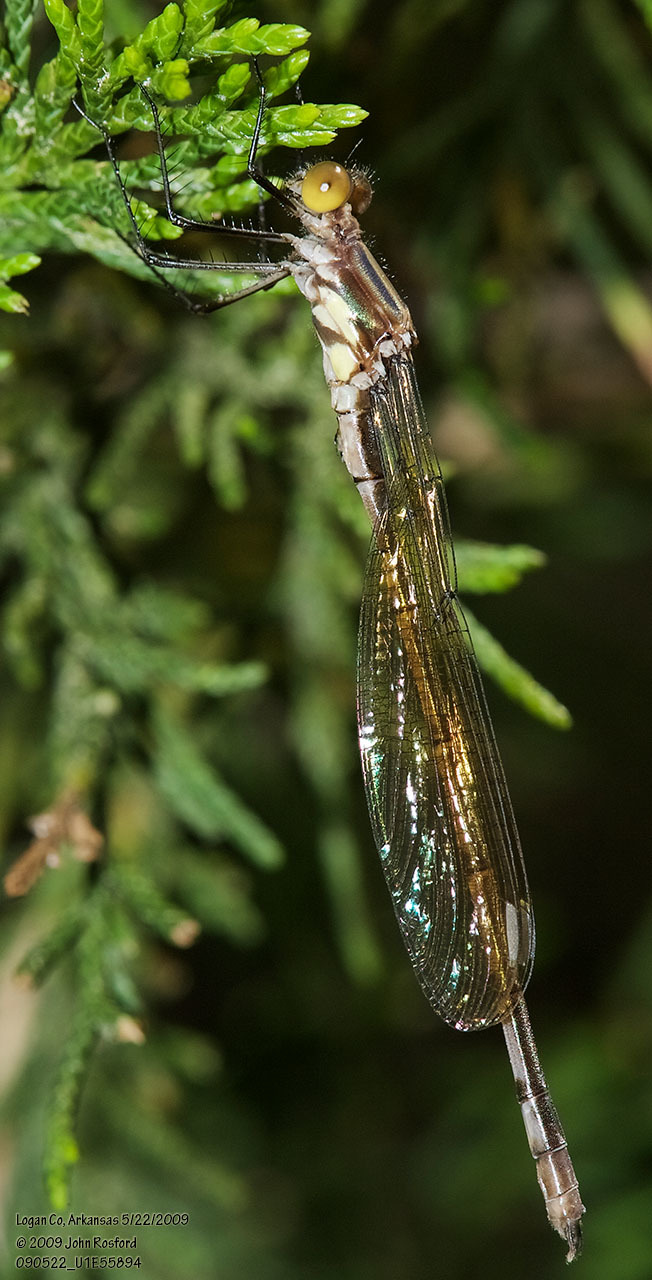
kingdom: Animalia
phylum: Arthropoda
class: Insecta
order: Odonata
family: Lestidae
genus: Lestes
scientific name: Lestes eurinus
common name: Amber-winged spreadwing
